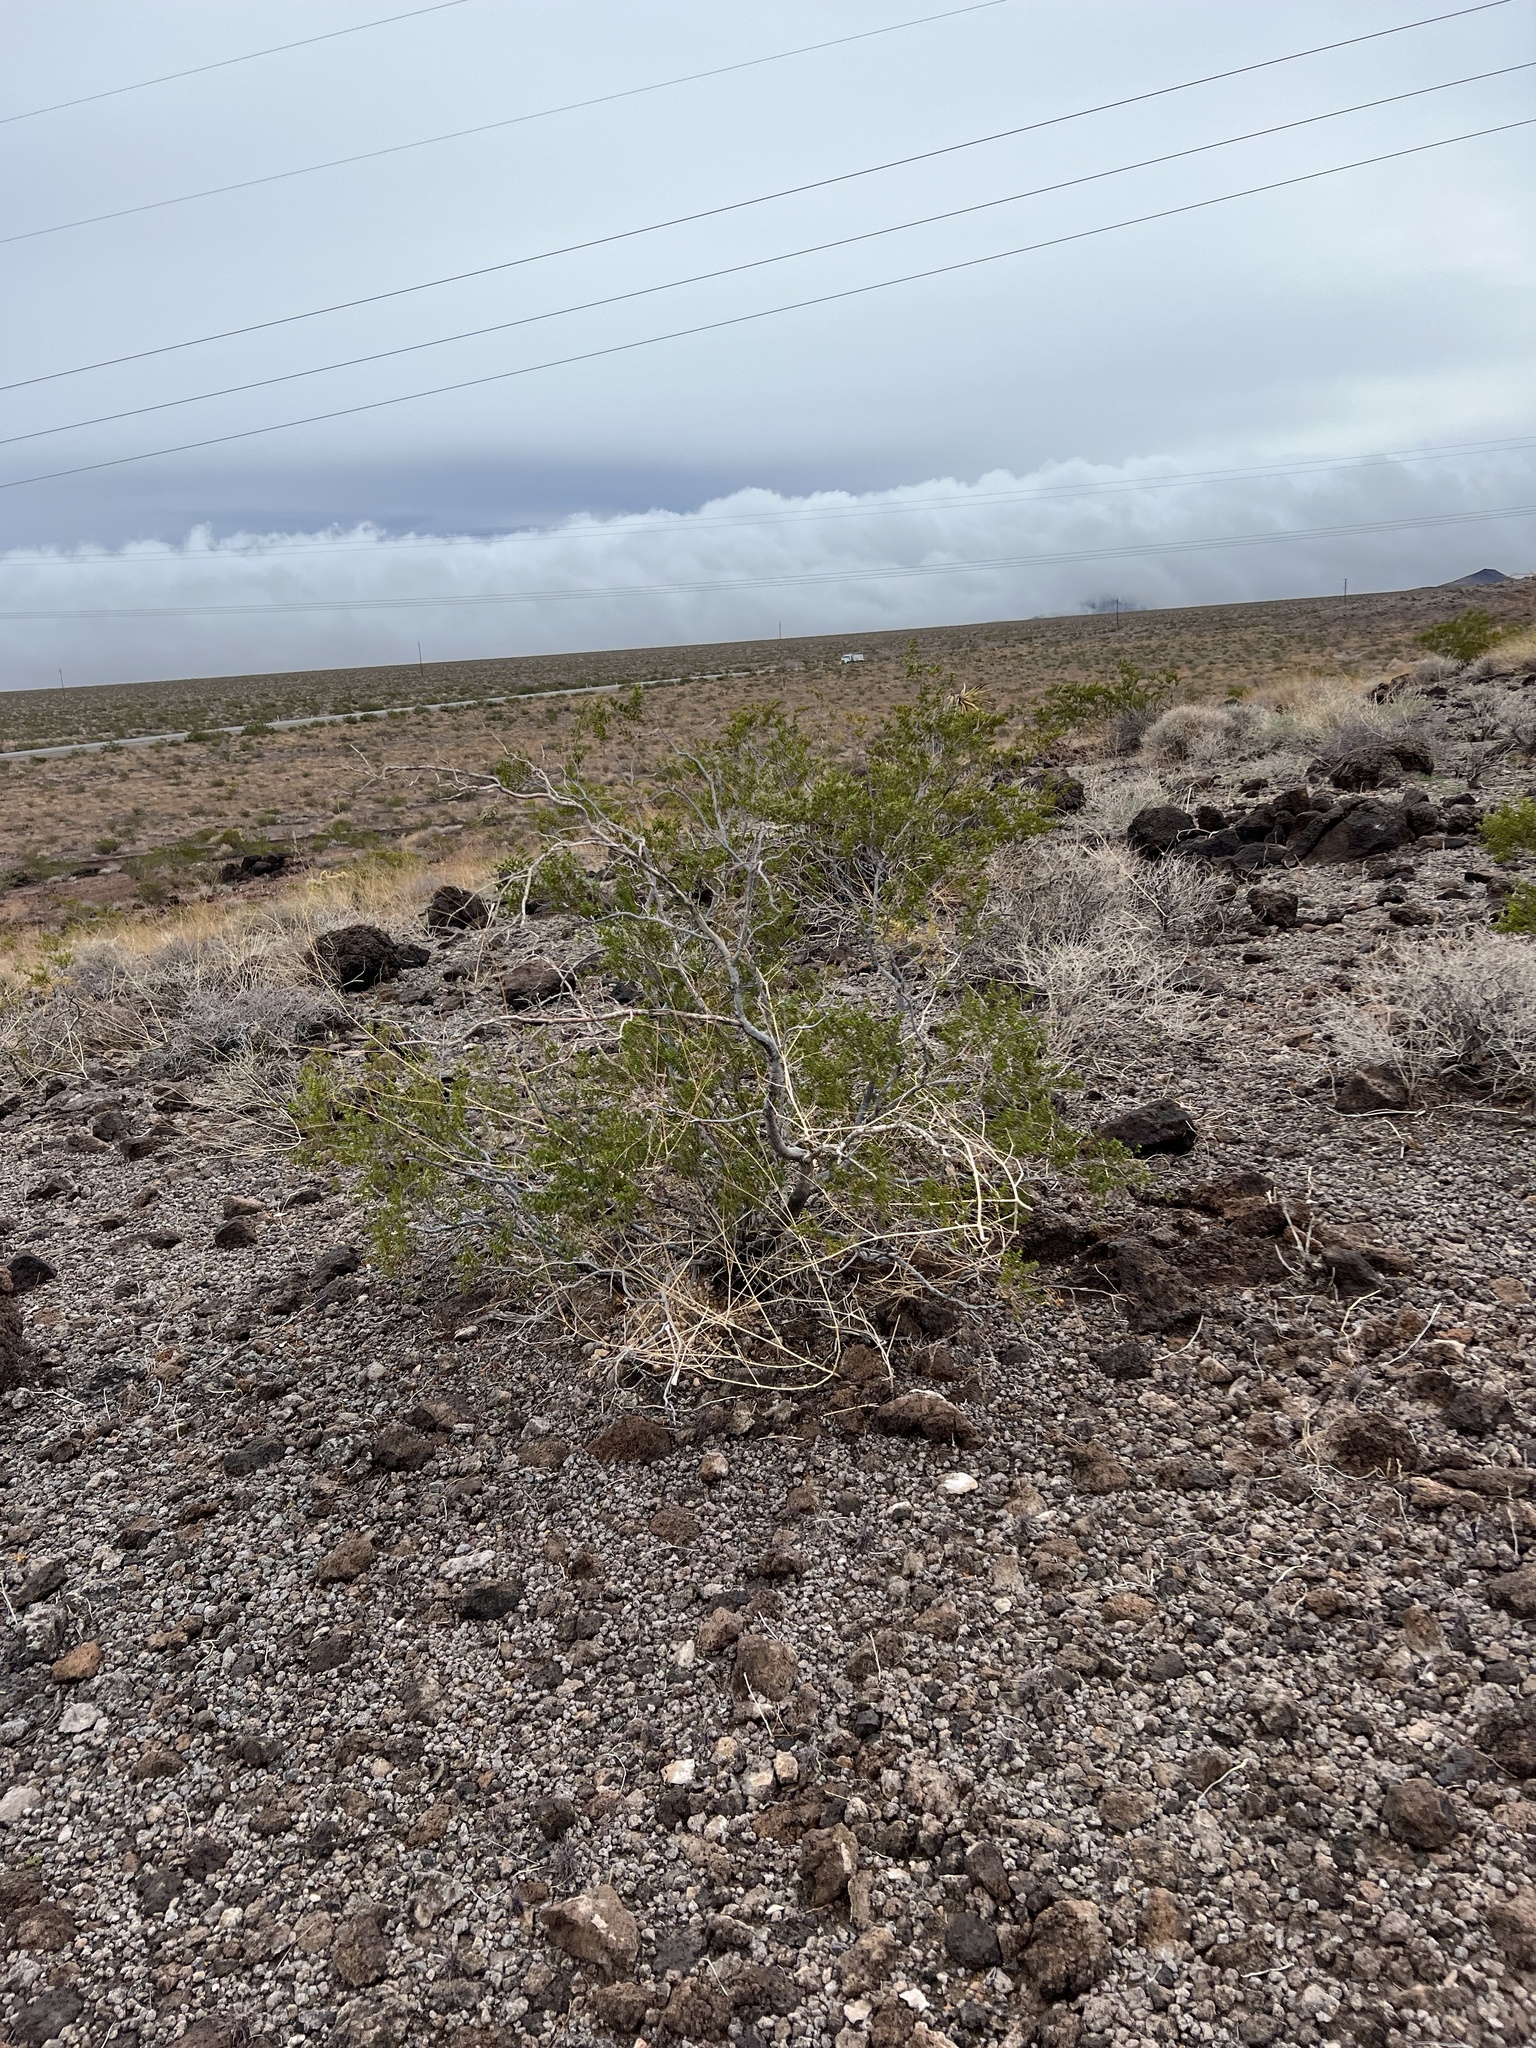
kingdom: Plantae
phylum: Tracheophyta
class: Magnoliopsida
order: Zygophyllales
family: Zygophyllaceae
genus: Larrea
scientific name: Larrea tridentata
